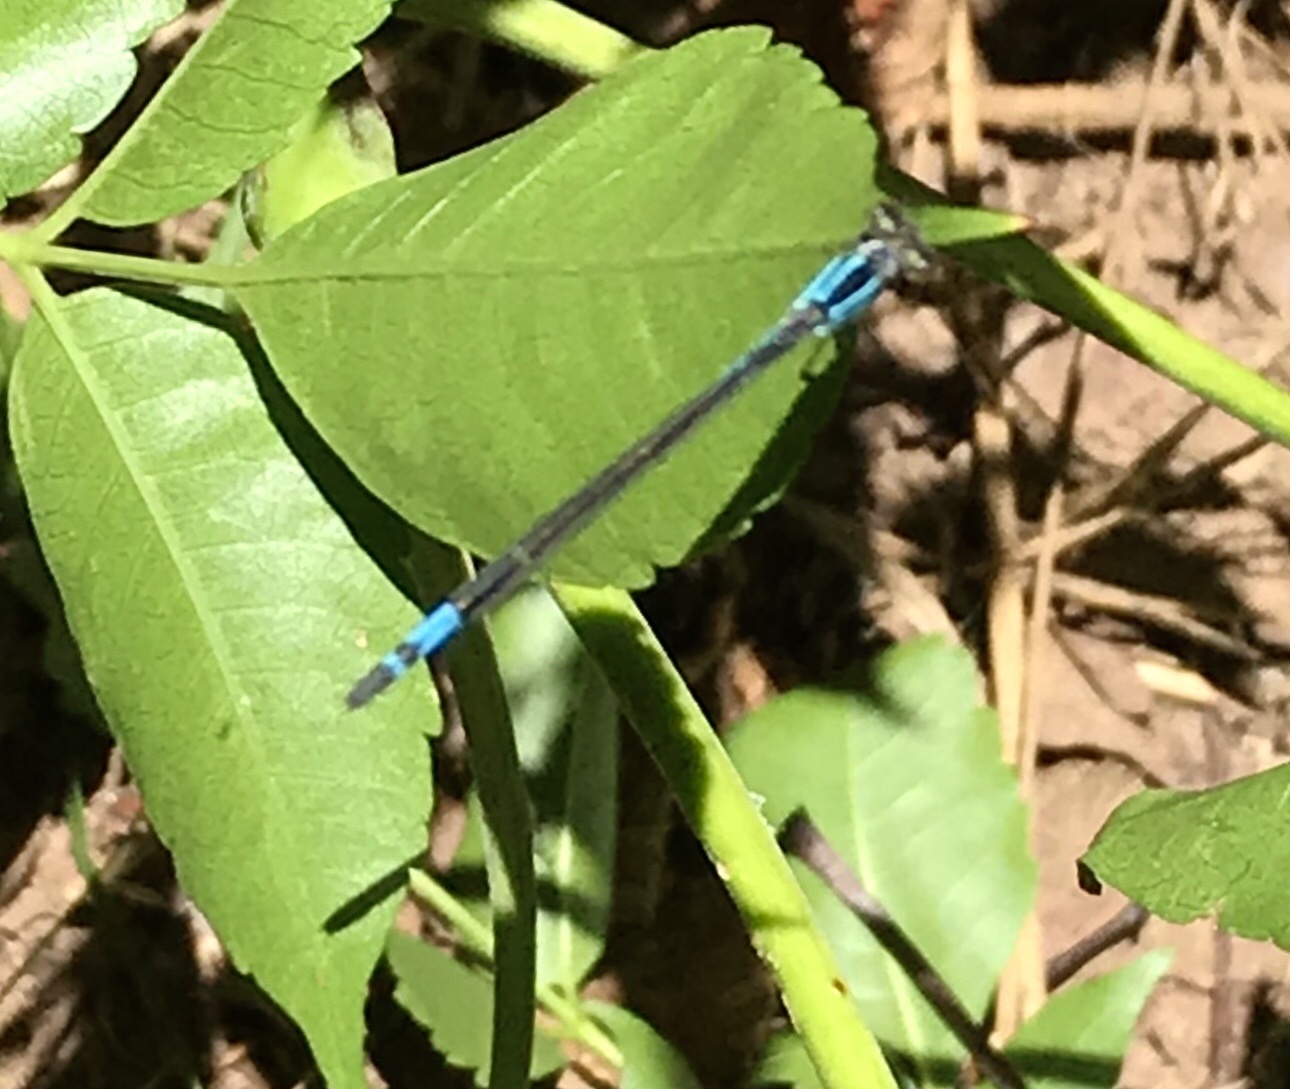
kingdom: Animalia
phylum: Arthropoda
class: Insecta
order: Odonata
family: Coenagrionidae
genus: Enallagma
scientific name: Enallagma aspersum
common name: Azure bluet
